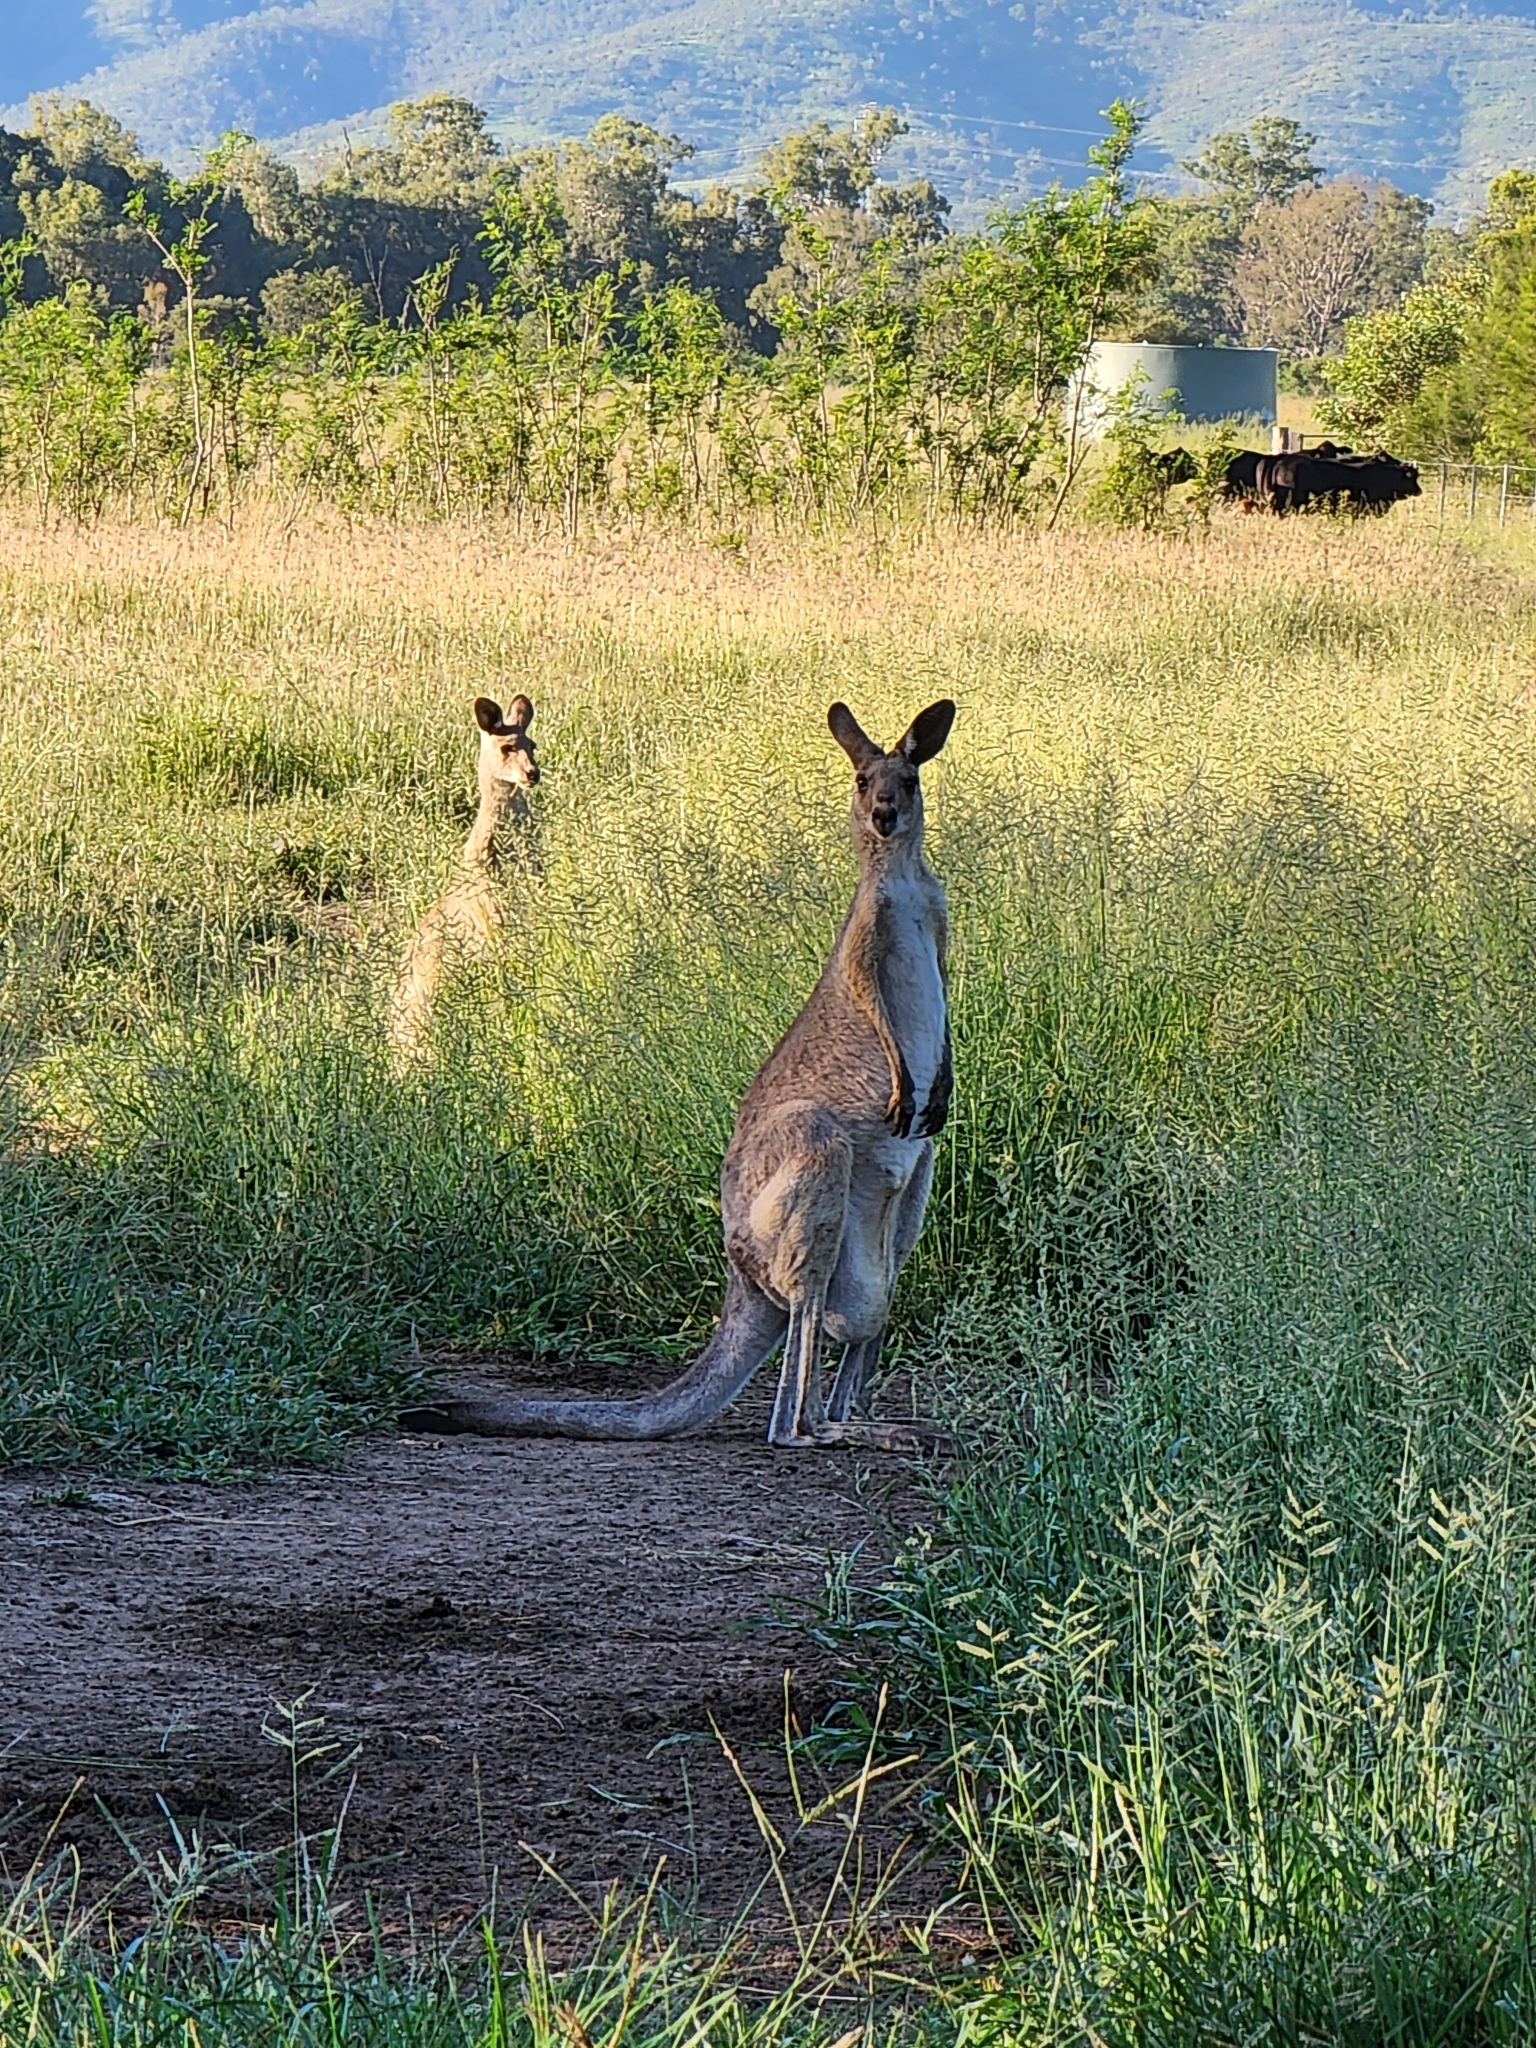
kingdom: Animalia
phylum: Chordata
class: Mammalia
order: Diprotodontia
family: Macropodidae
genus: Macropus
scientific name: Macropus giganteus
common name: Eastern grey kangaroo
